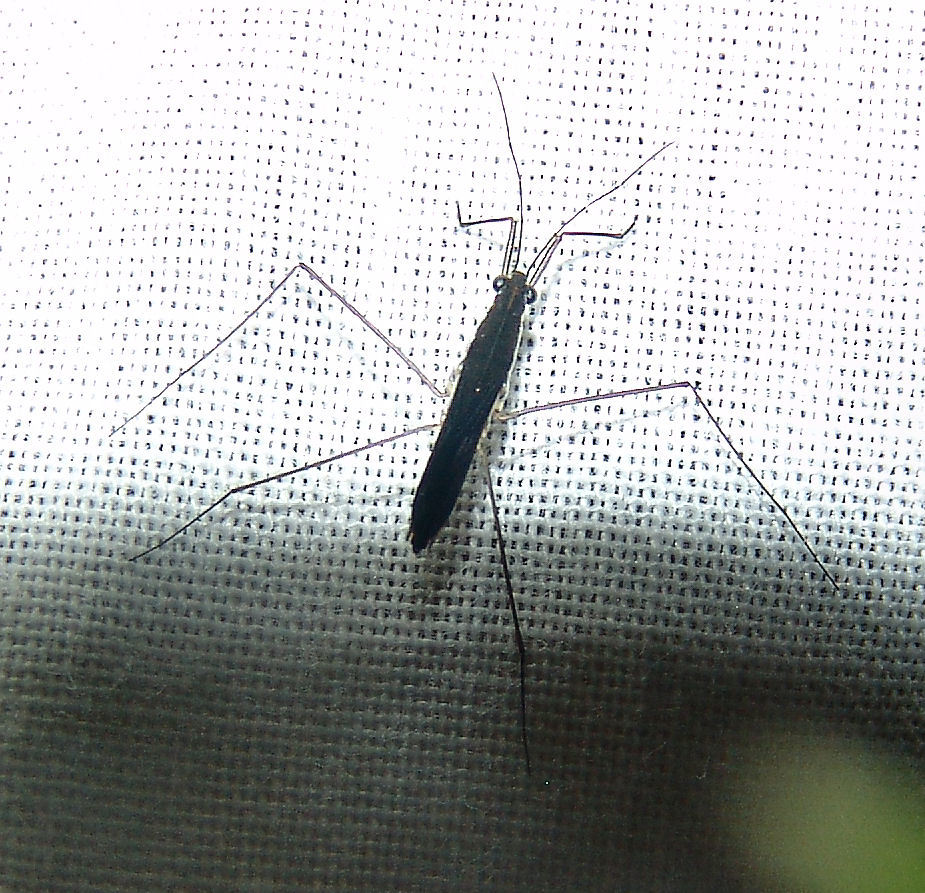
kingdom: Animalia
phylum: Arthropoda
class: Insecta
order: Hemiptera
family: Gerridae
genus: Limnoporus
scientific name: Limnoporus canaliculatus
